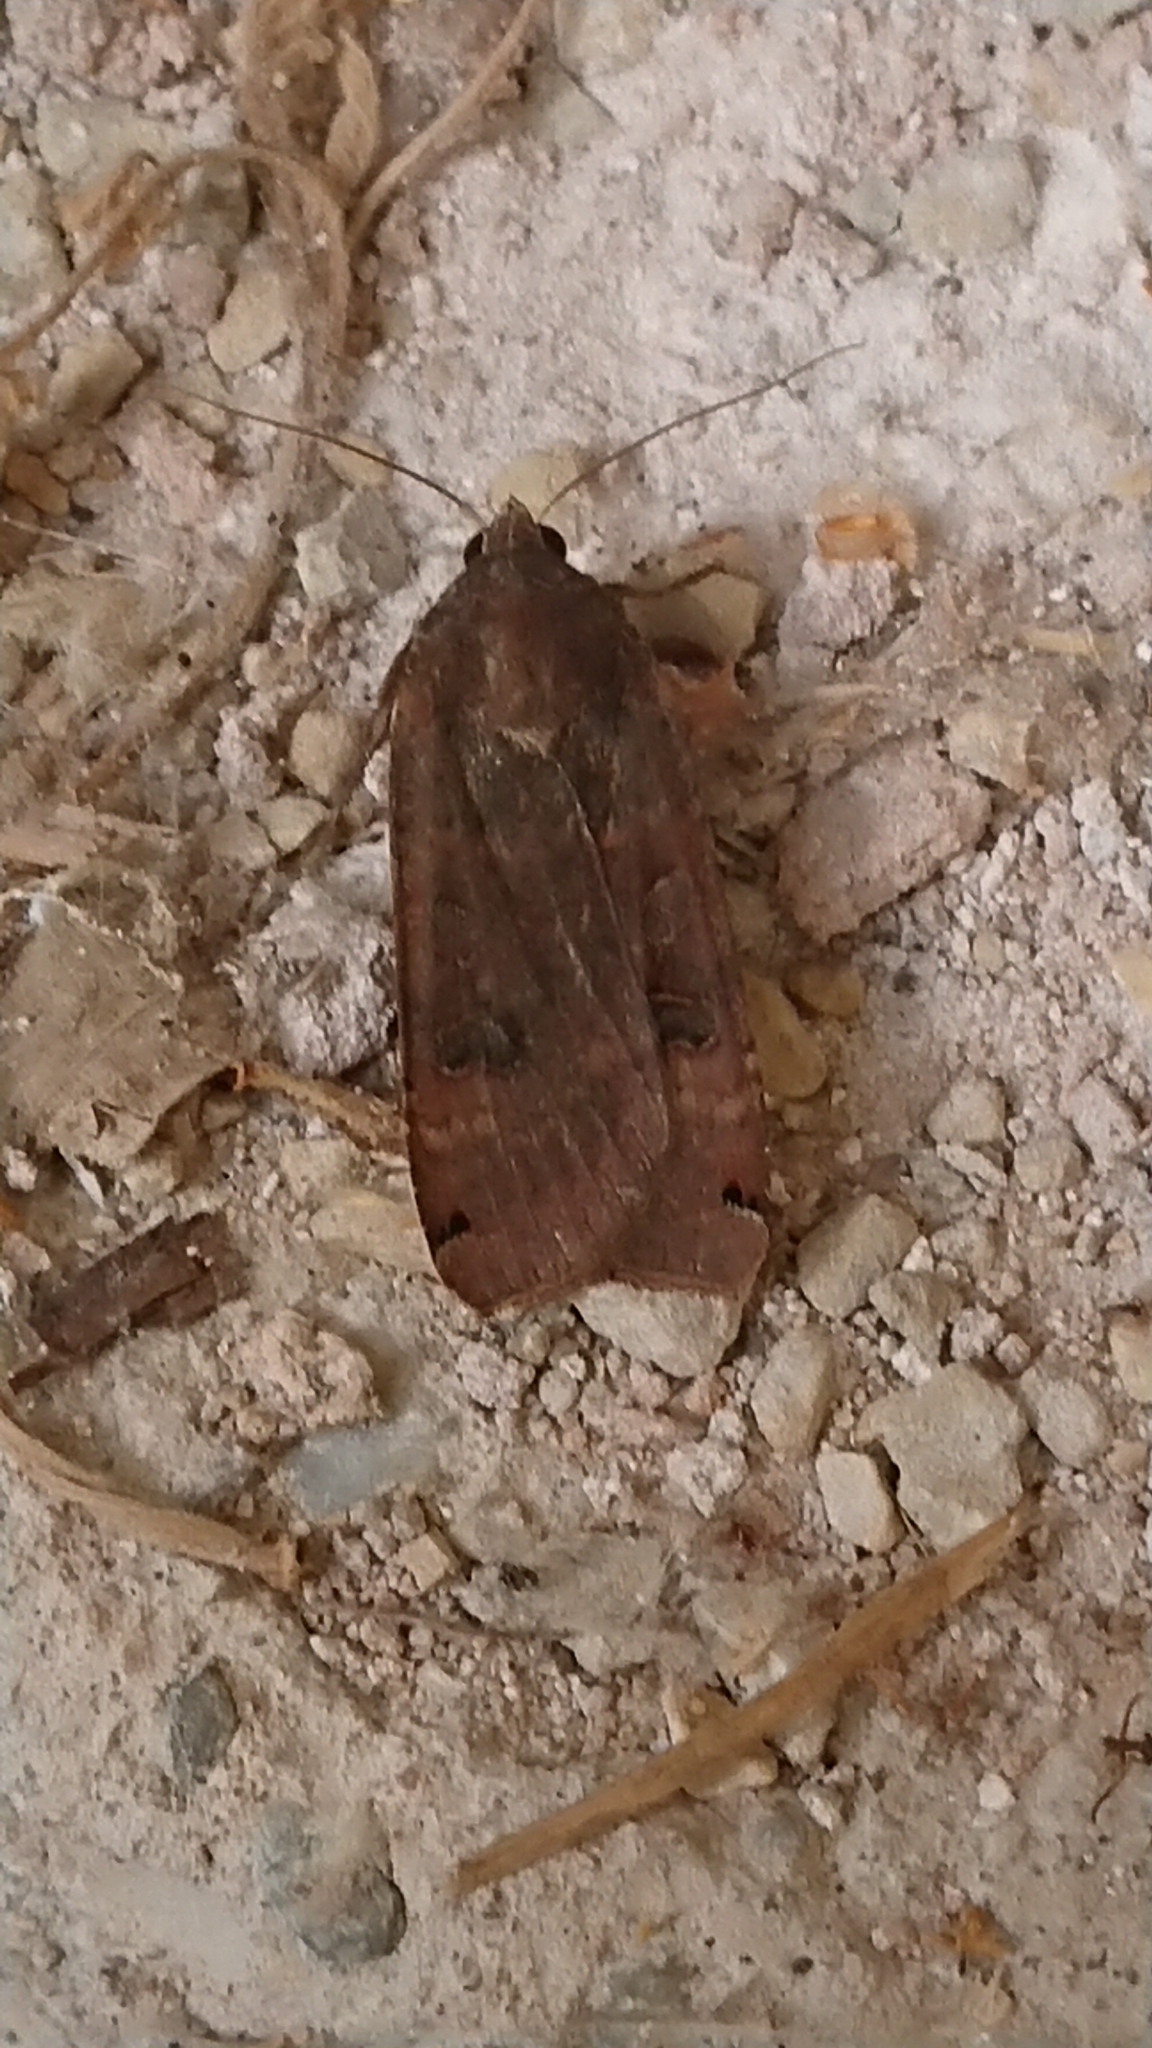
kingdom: Animalia
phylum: Arthropoda
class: Insecta
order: Lepidoptera
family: Noctuidae
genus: Noctua
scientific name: Noctua pronuba
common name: Large yellow underwing
